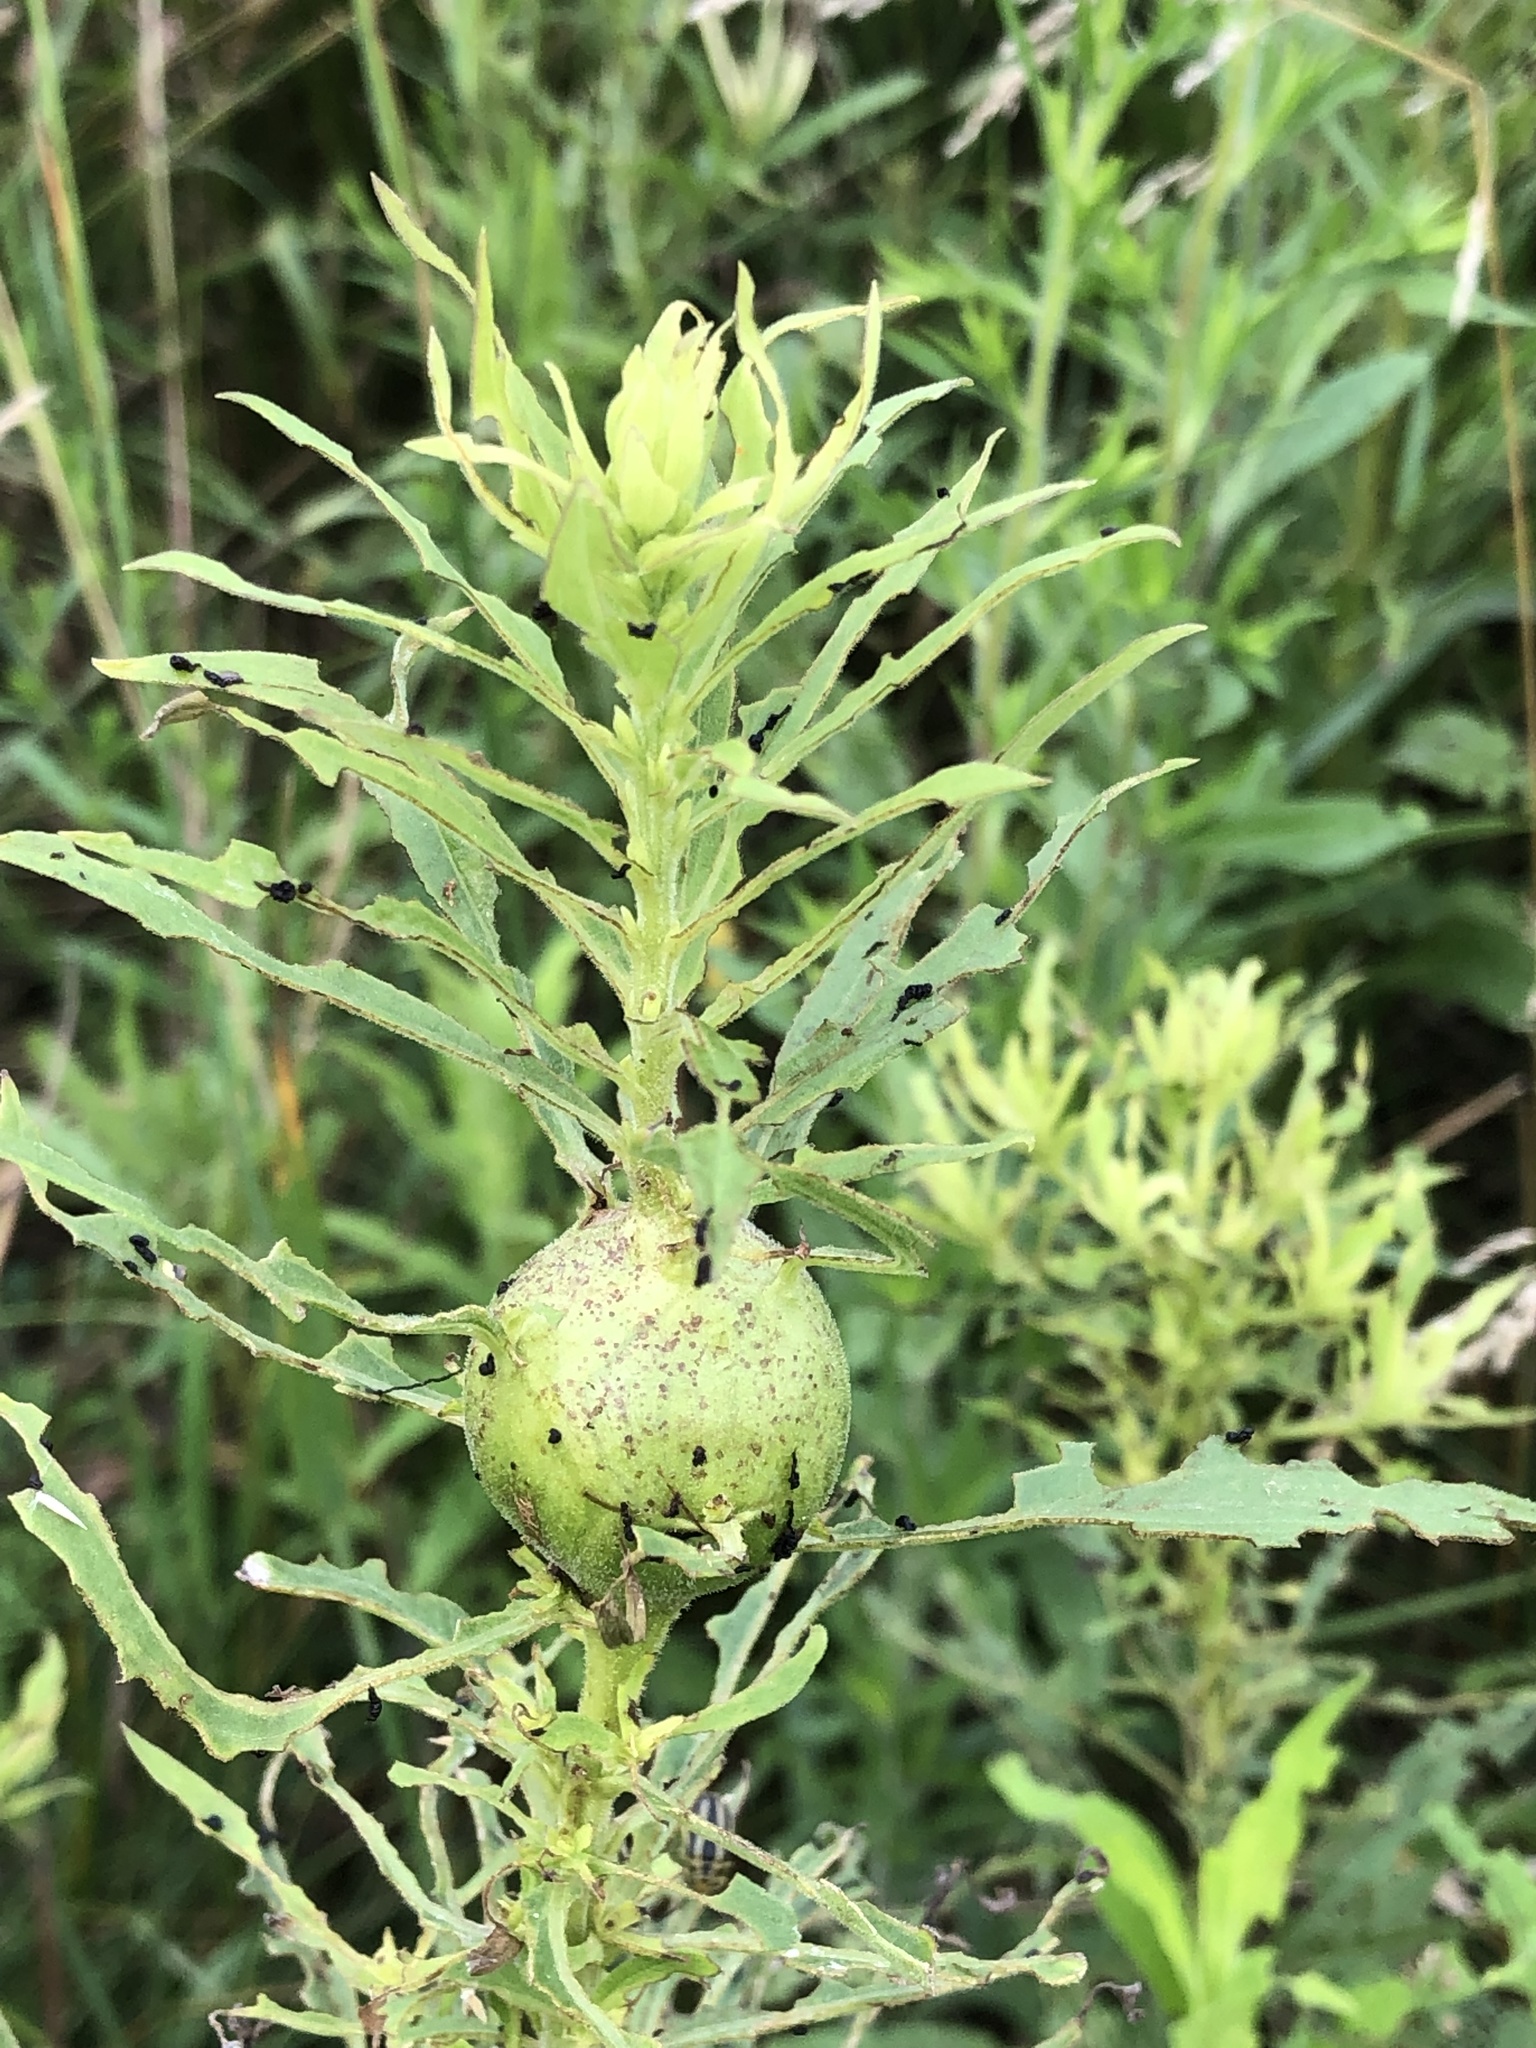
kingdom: Animalia
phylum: Arthropoda
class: Insecta
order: Diptera
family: Tephritidae
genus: Eurosta
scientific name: Eurosta solidaginis
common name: Goldenrod gall fly
